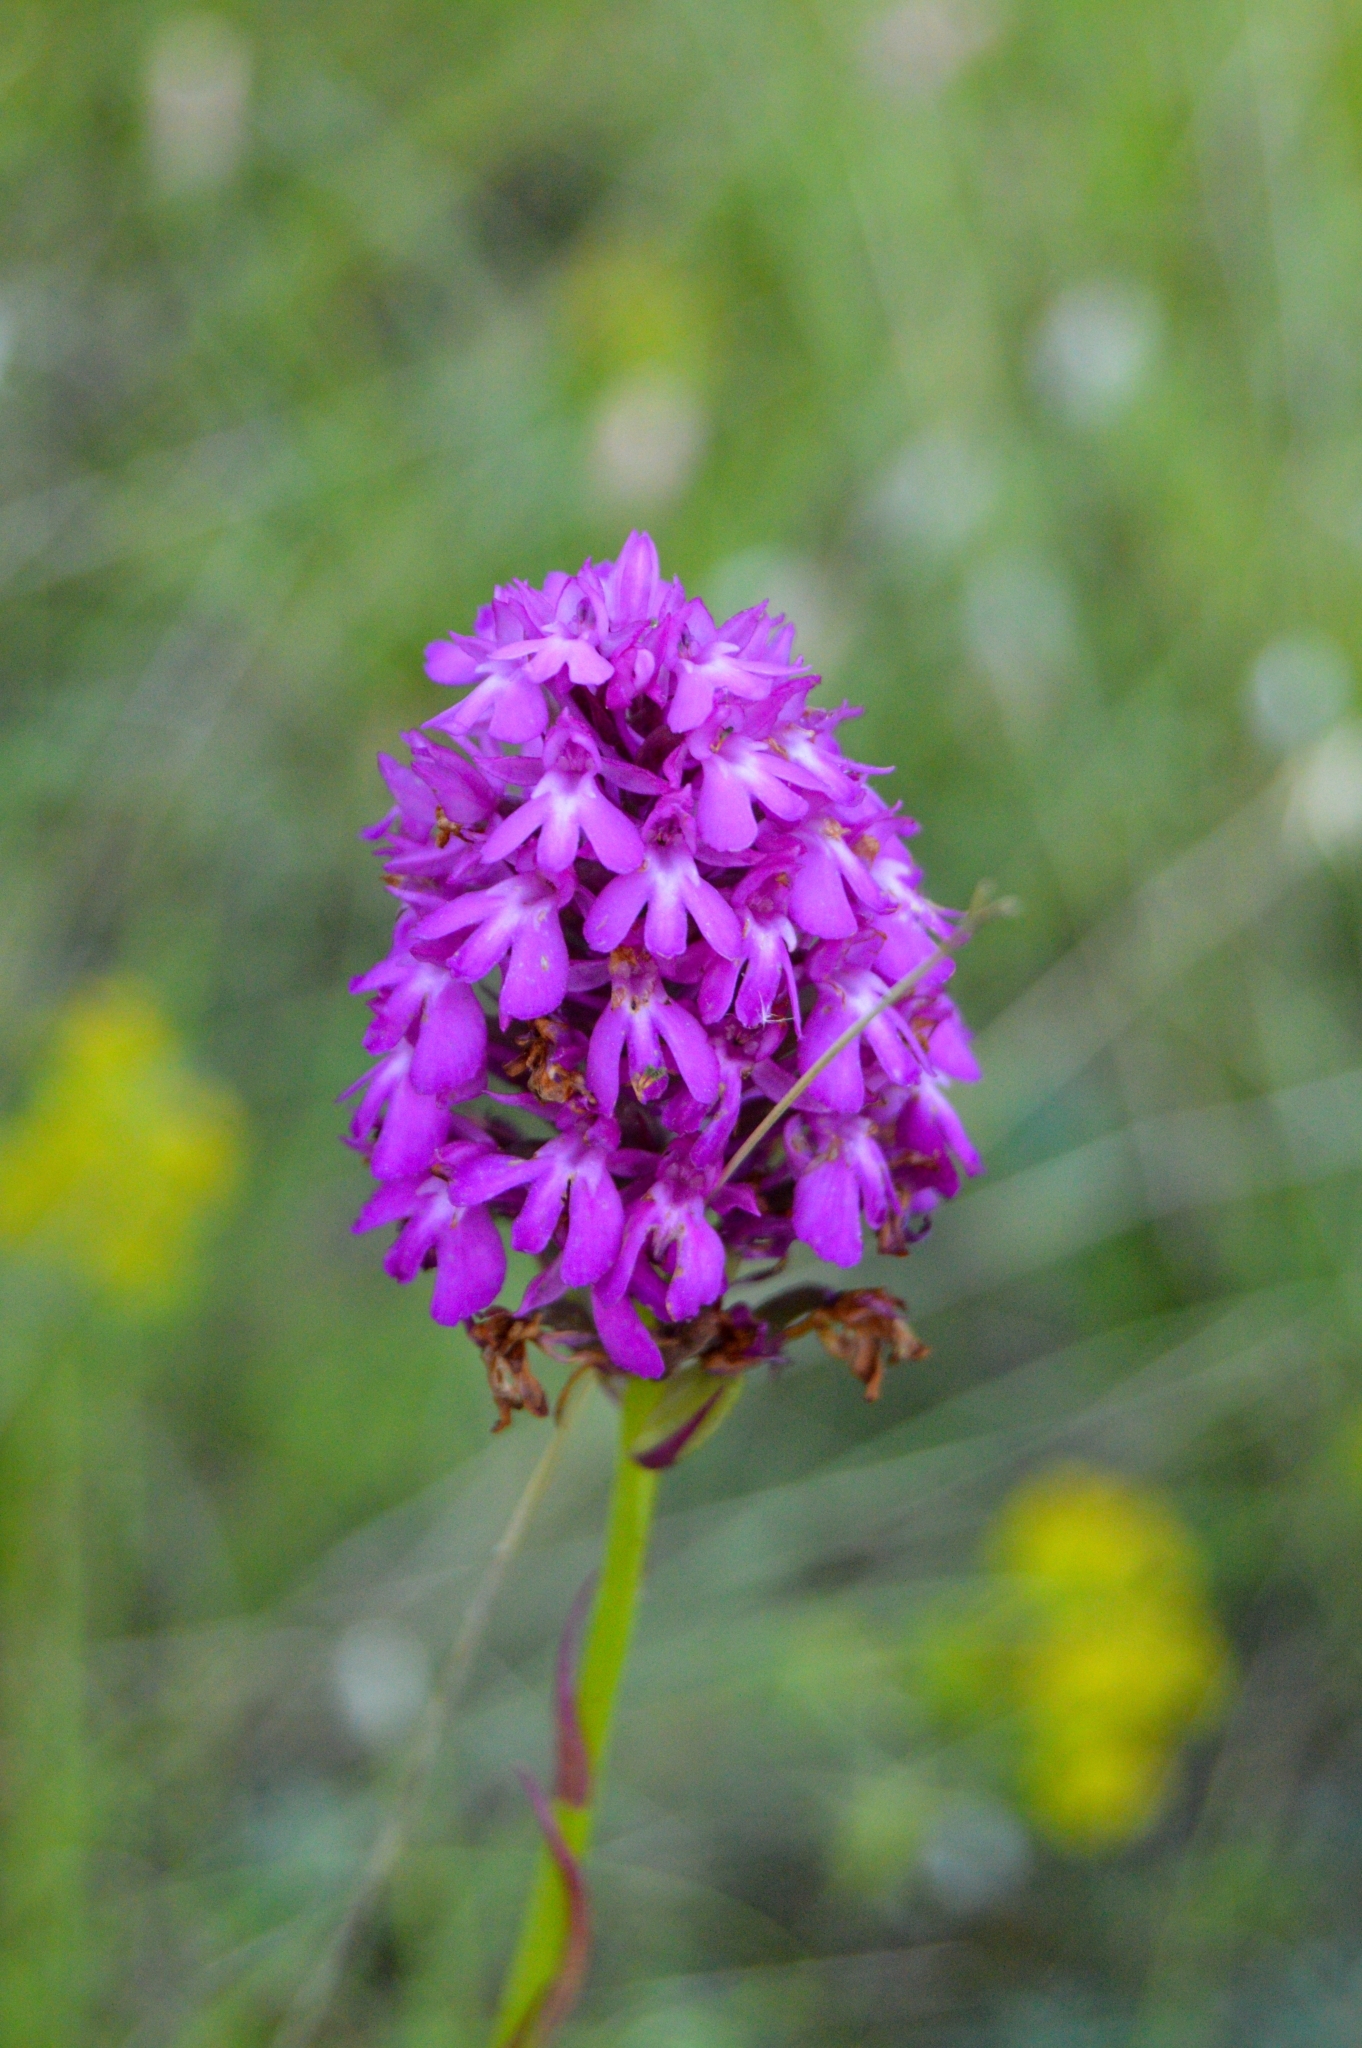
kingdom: Plantae
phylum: Tracheophyta
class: Liliopsida
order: Asparagales
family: Orchidaceae
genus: Anacamptis
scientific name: Anacamptis pyramidalis
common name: Pyramidal orchid
